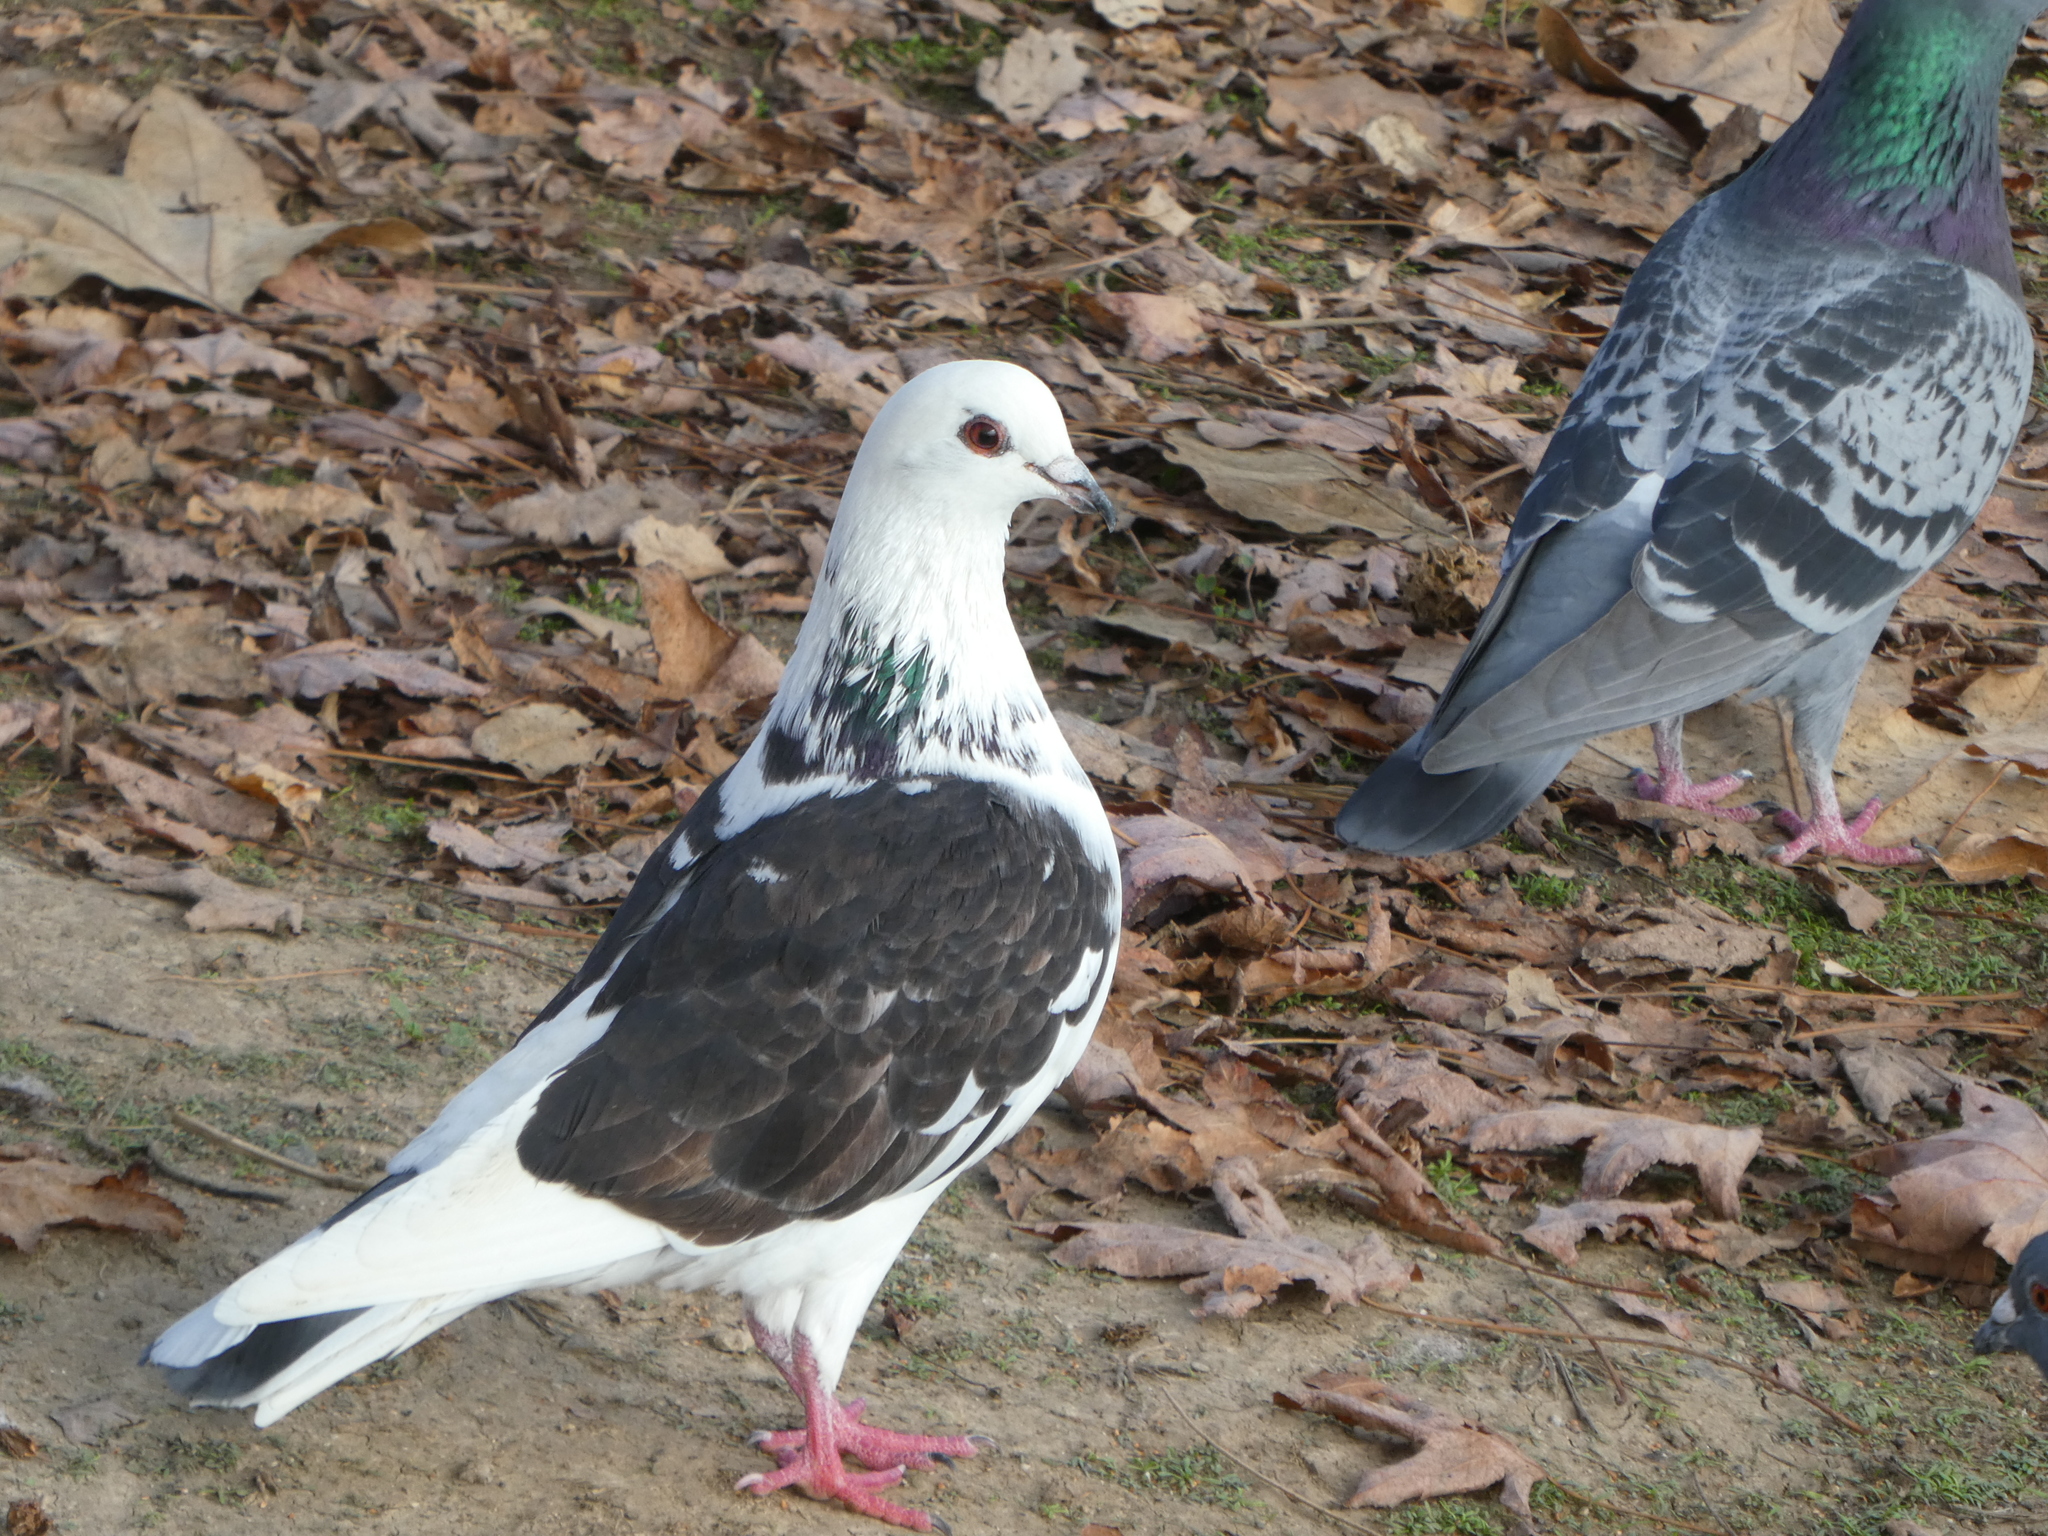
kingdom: Animalia
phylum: Chordata
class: Aves
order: Columbiformes
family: Columbidae
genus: Columba
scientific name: Columba livia
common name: Rock pigeon
